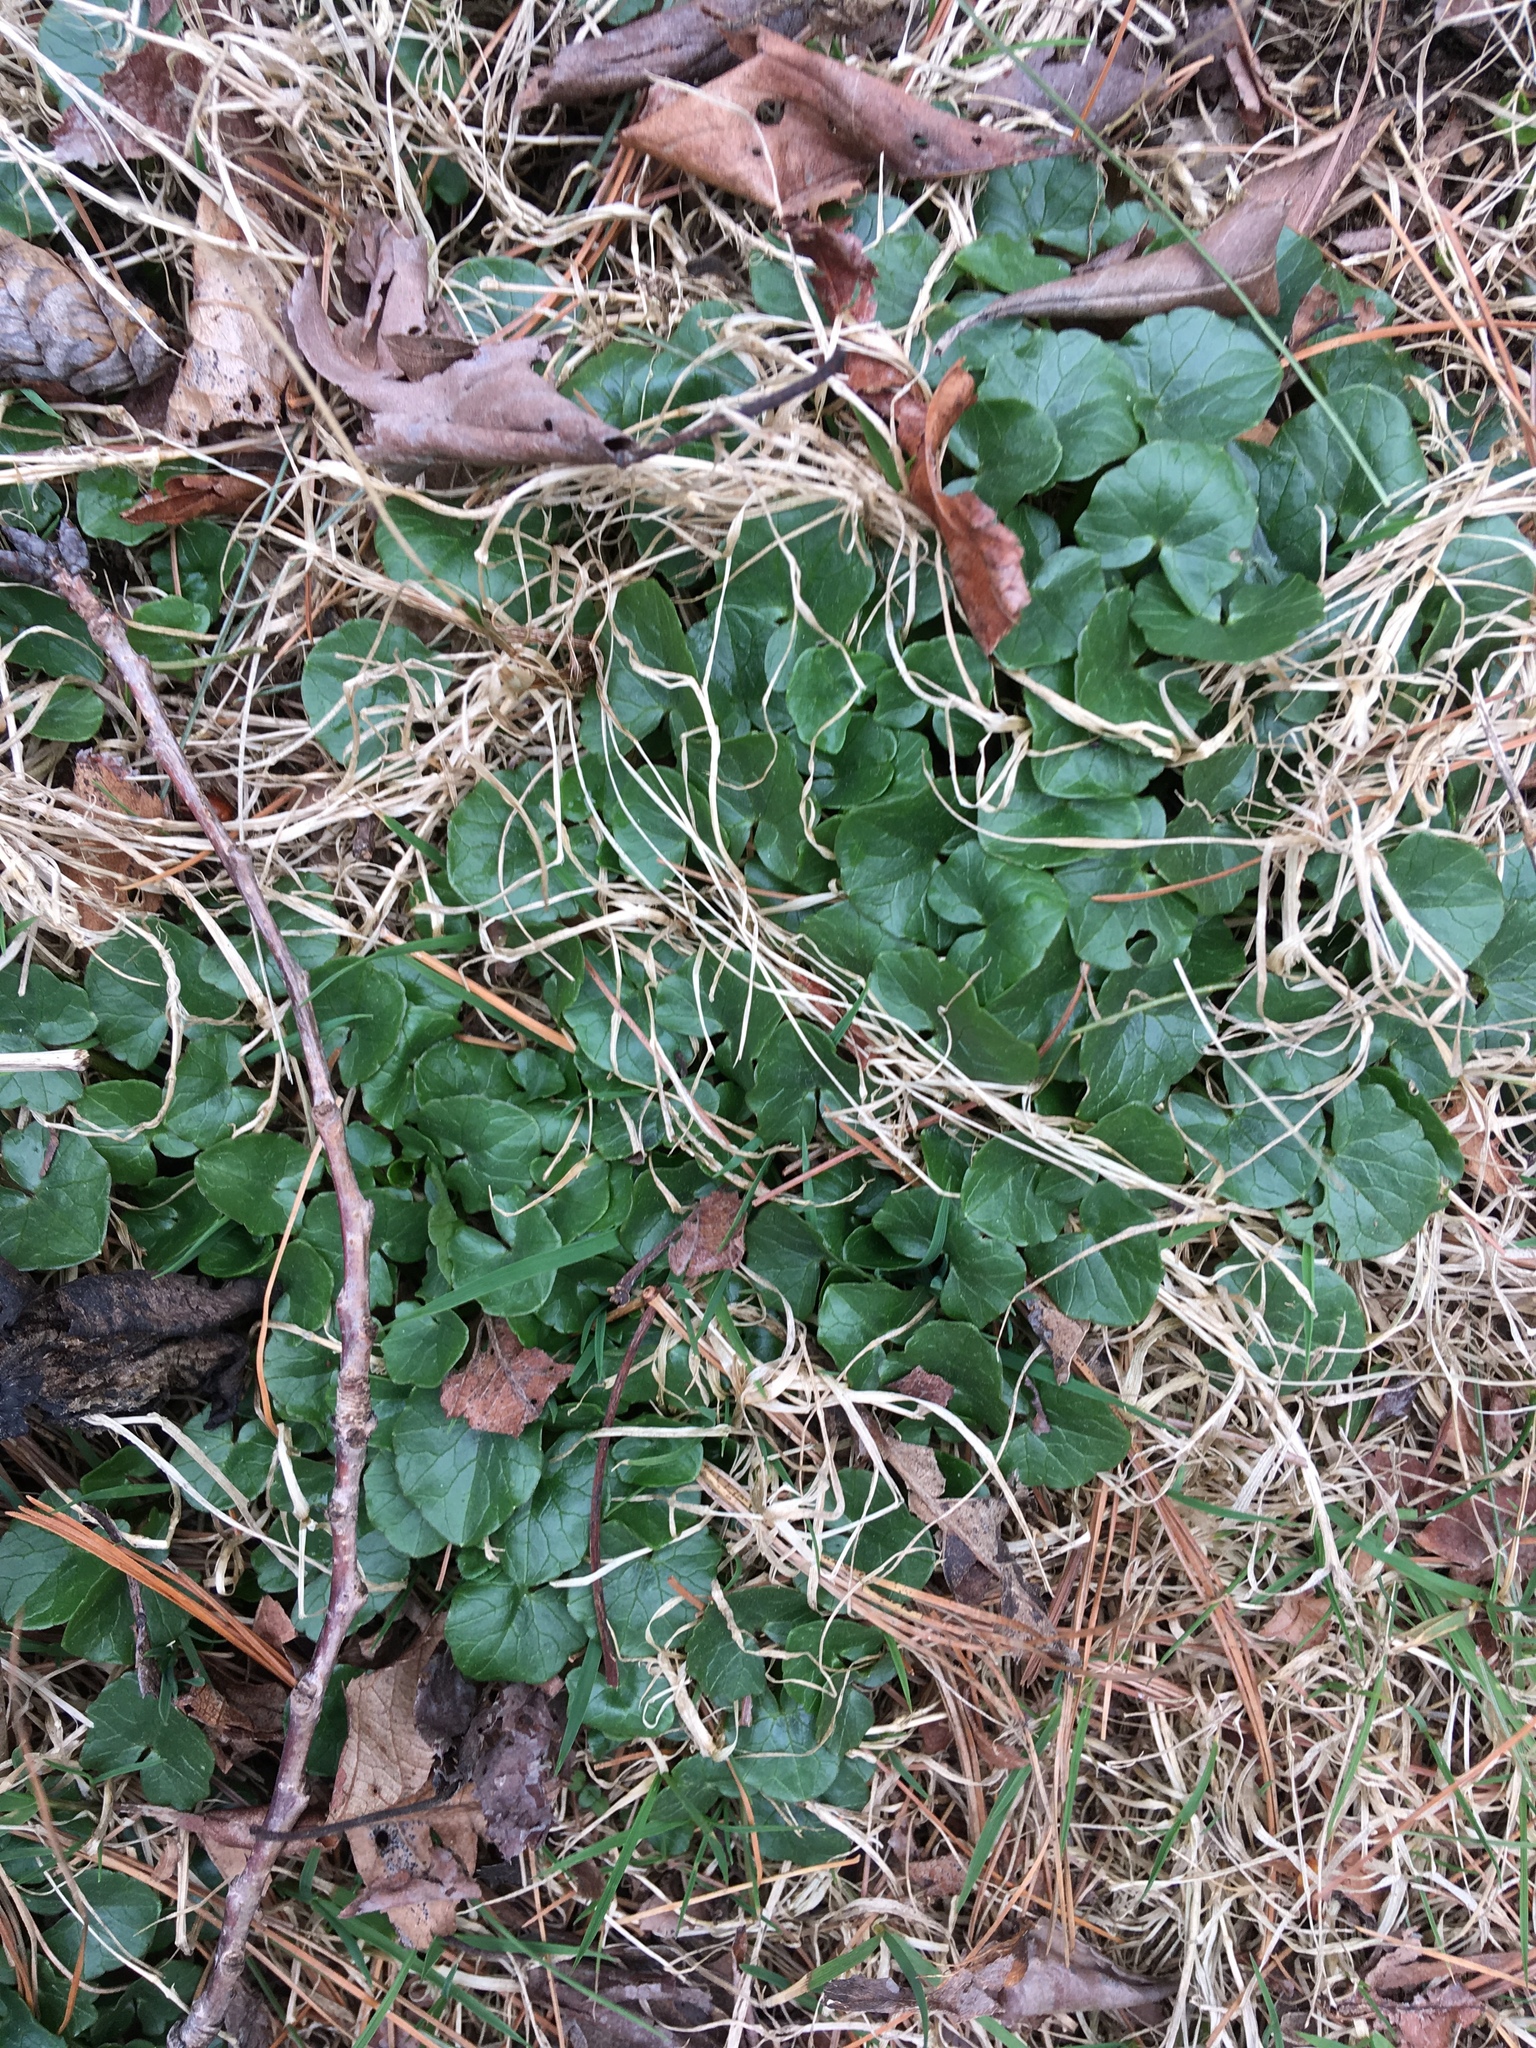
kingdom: Plantae
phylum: Tracheophyta
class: Magnoliopsida
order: Ranunculales
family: Ranunculaceae
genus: Ficaria
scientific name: Ficaria verna
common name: Lesser celandine
